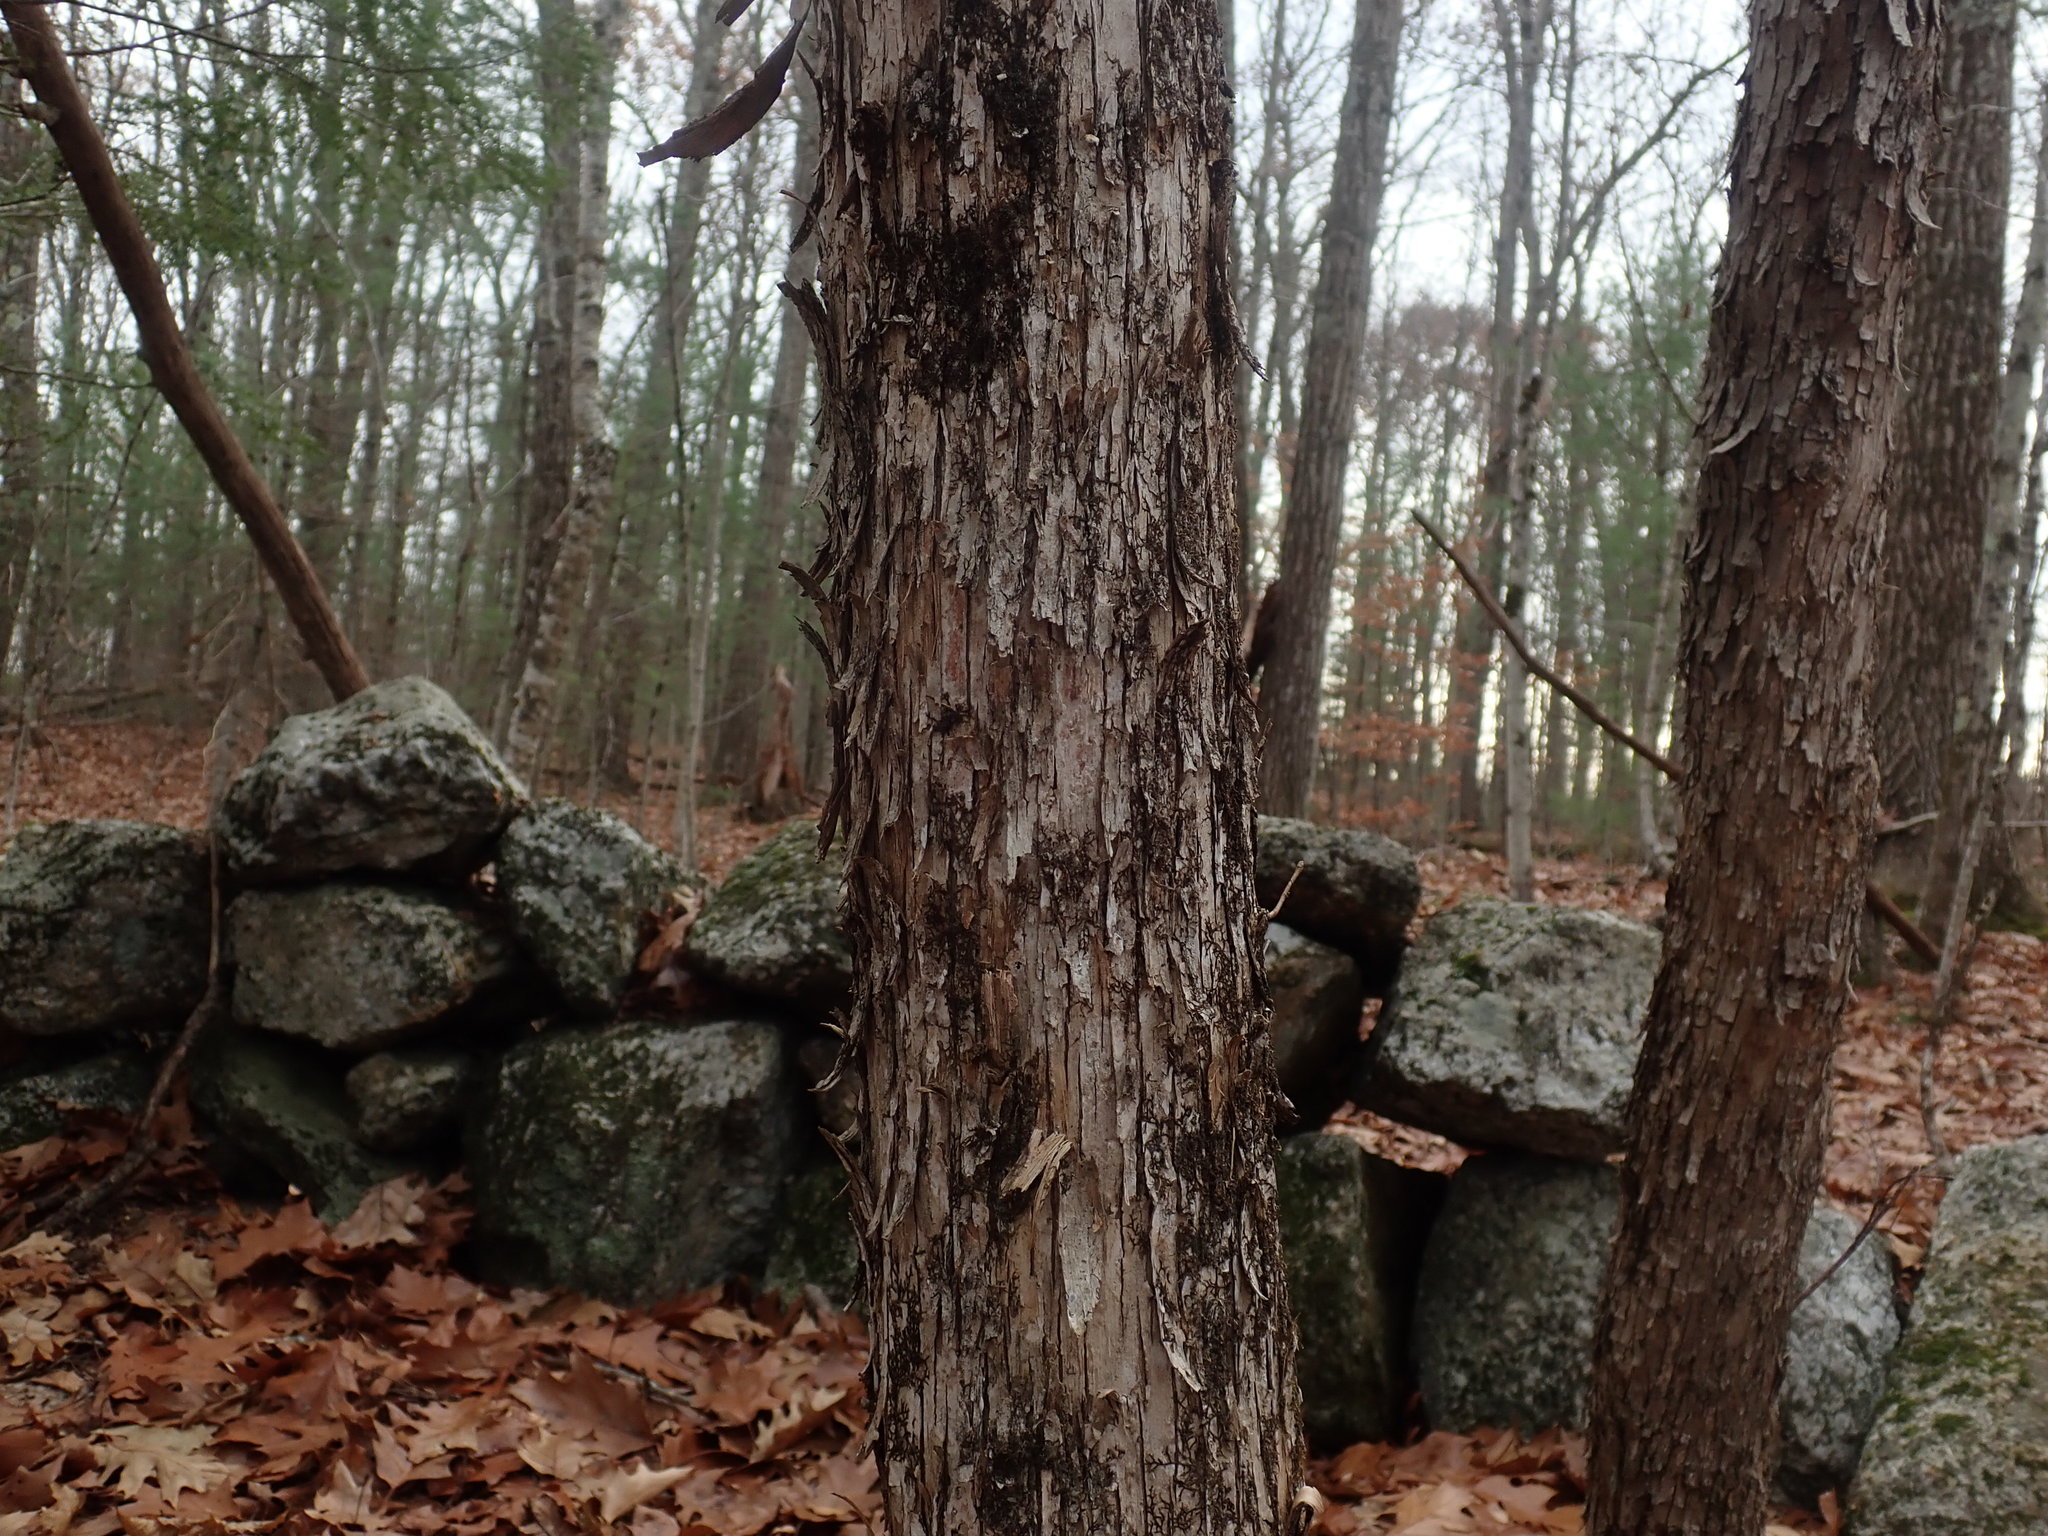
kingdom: Plantae
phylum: Tracheophyta
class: Magnoliopsida
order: Fagales
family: Betulaceae
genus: Ostrya
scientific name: Ostrya virginiana
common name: Ironwood
